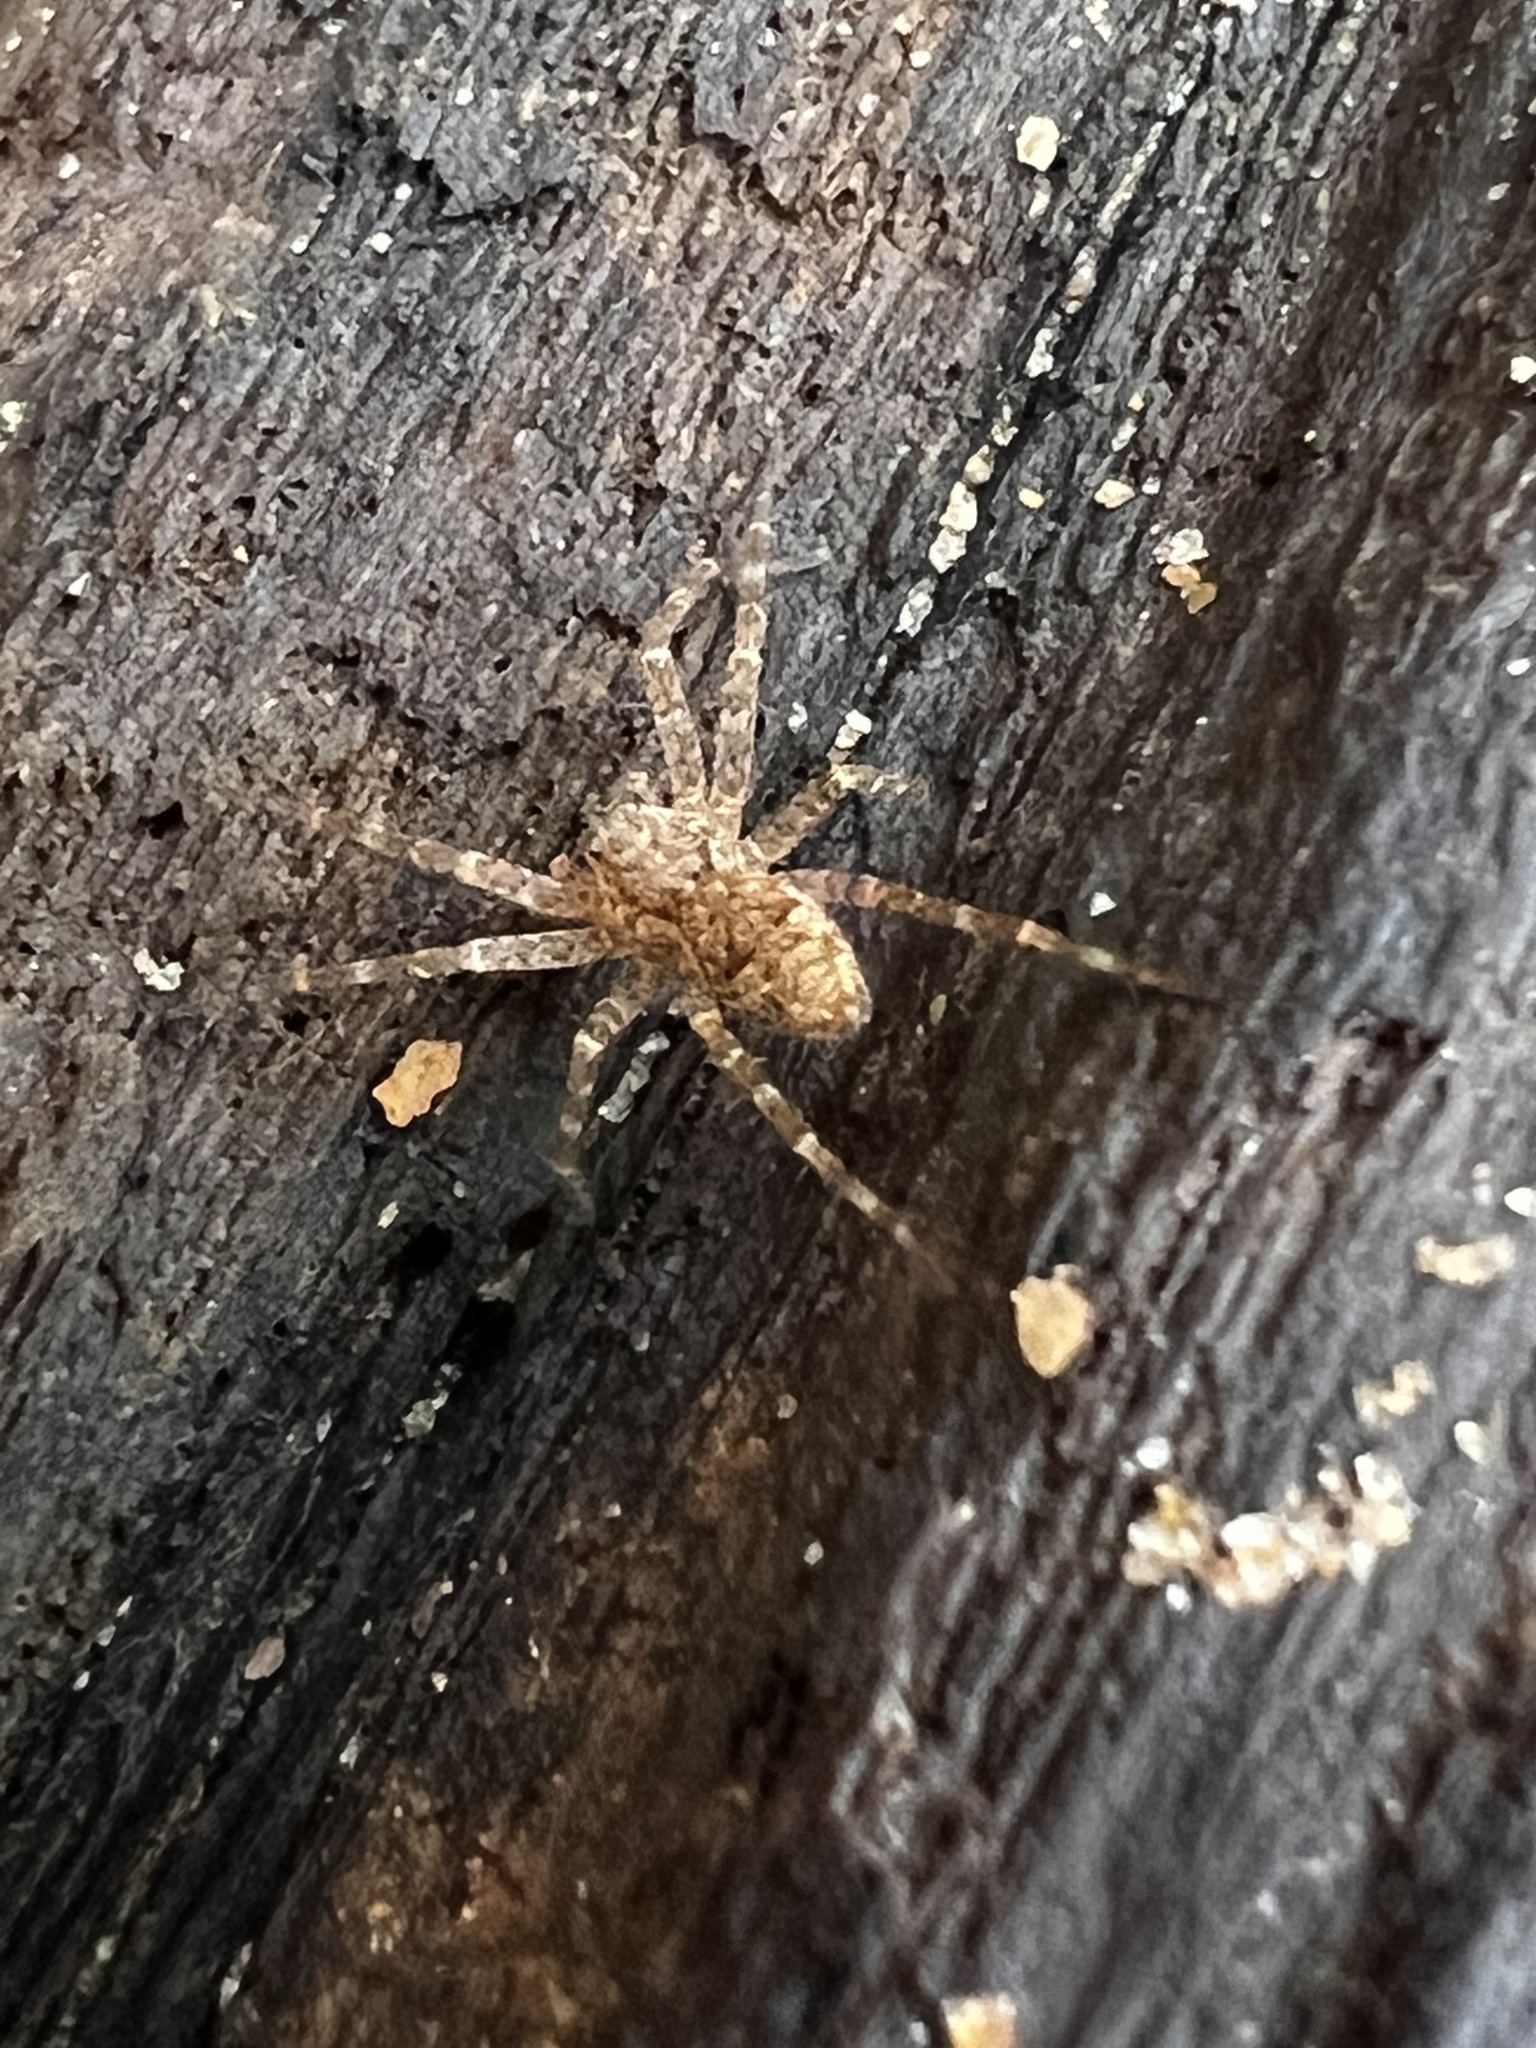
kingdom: Animalia
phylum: Arthropoda
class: Arachnida
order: Araneae
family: Pisauridae
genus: Dolomedes
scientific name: Dolomedes tenebrosus
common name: Dark fishing spider
